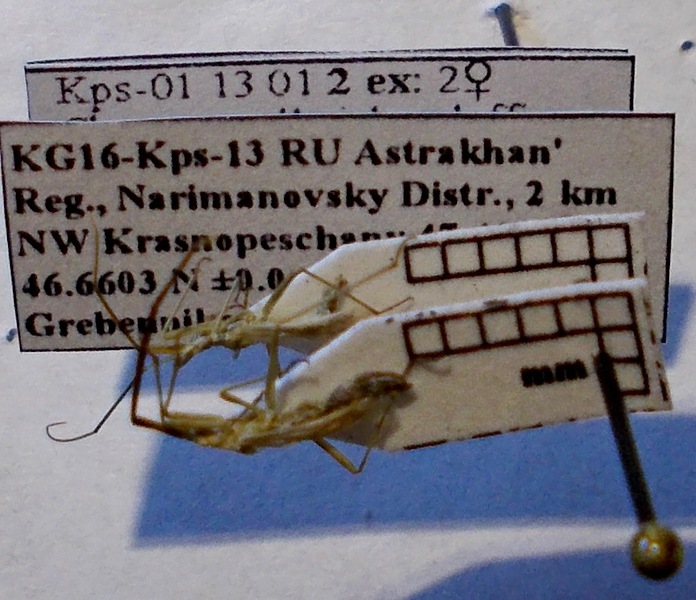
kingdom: Animalia
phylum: Arthropoda
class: Insecta
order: Hemiptera
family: Miridae
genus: Chorosomella
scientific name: Chorosomella jakowleffi
